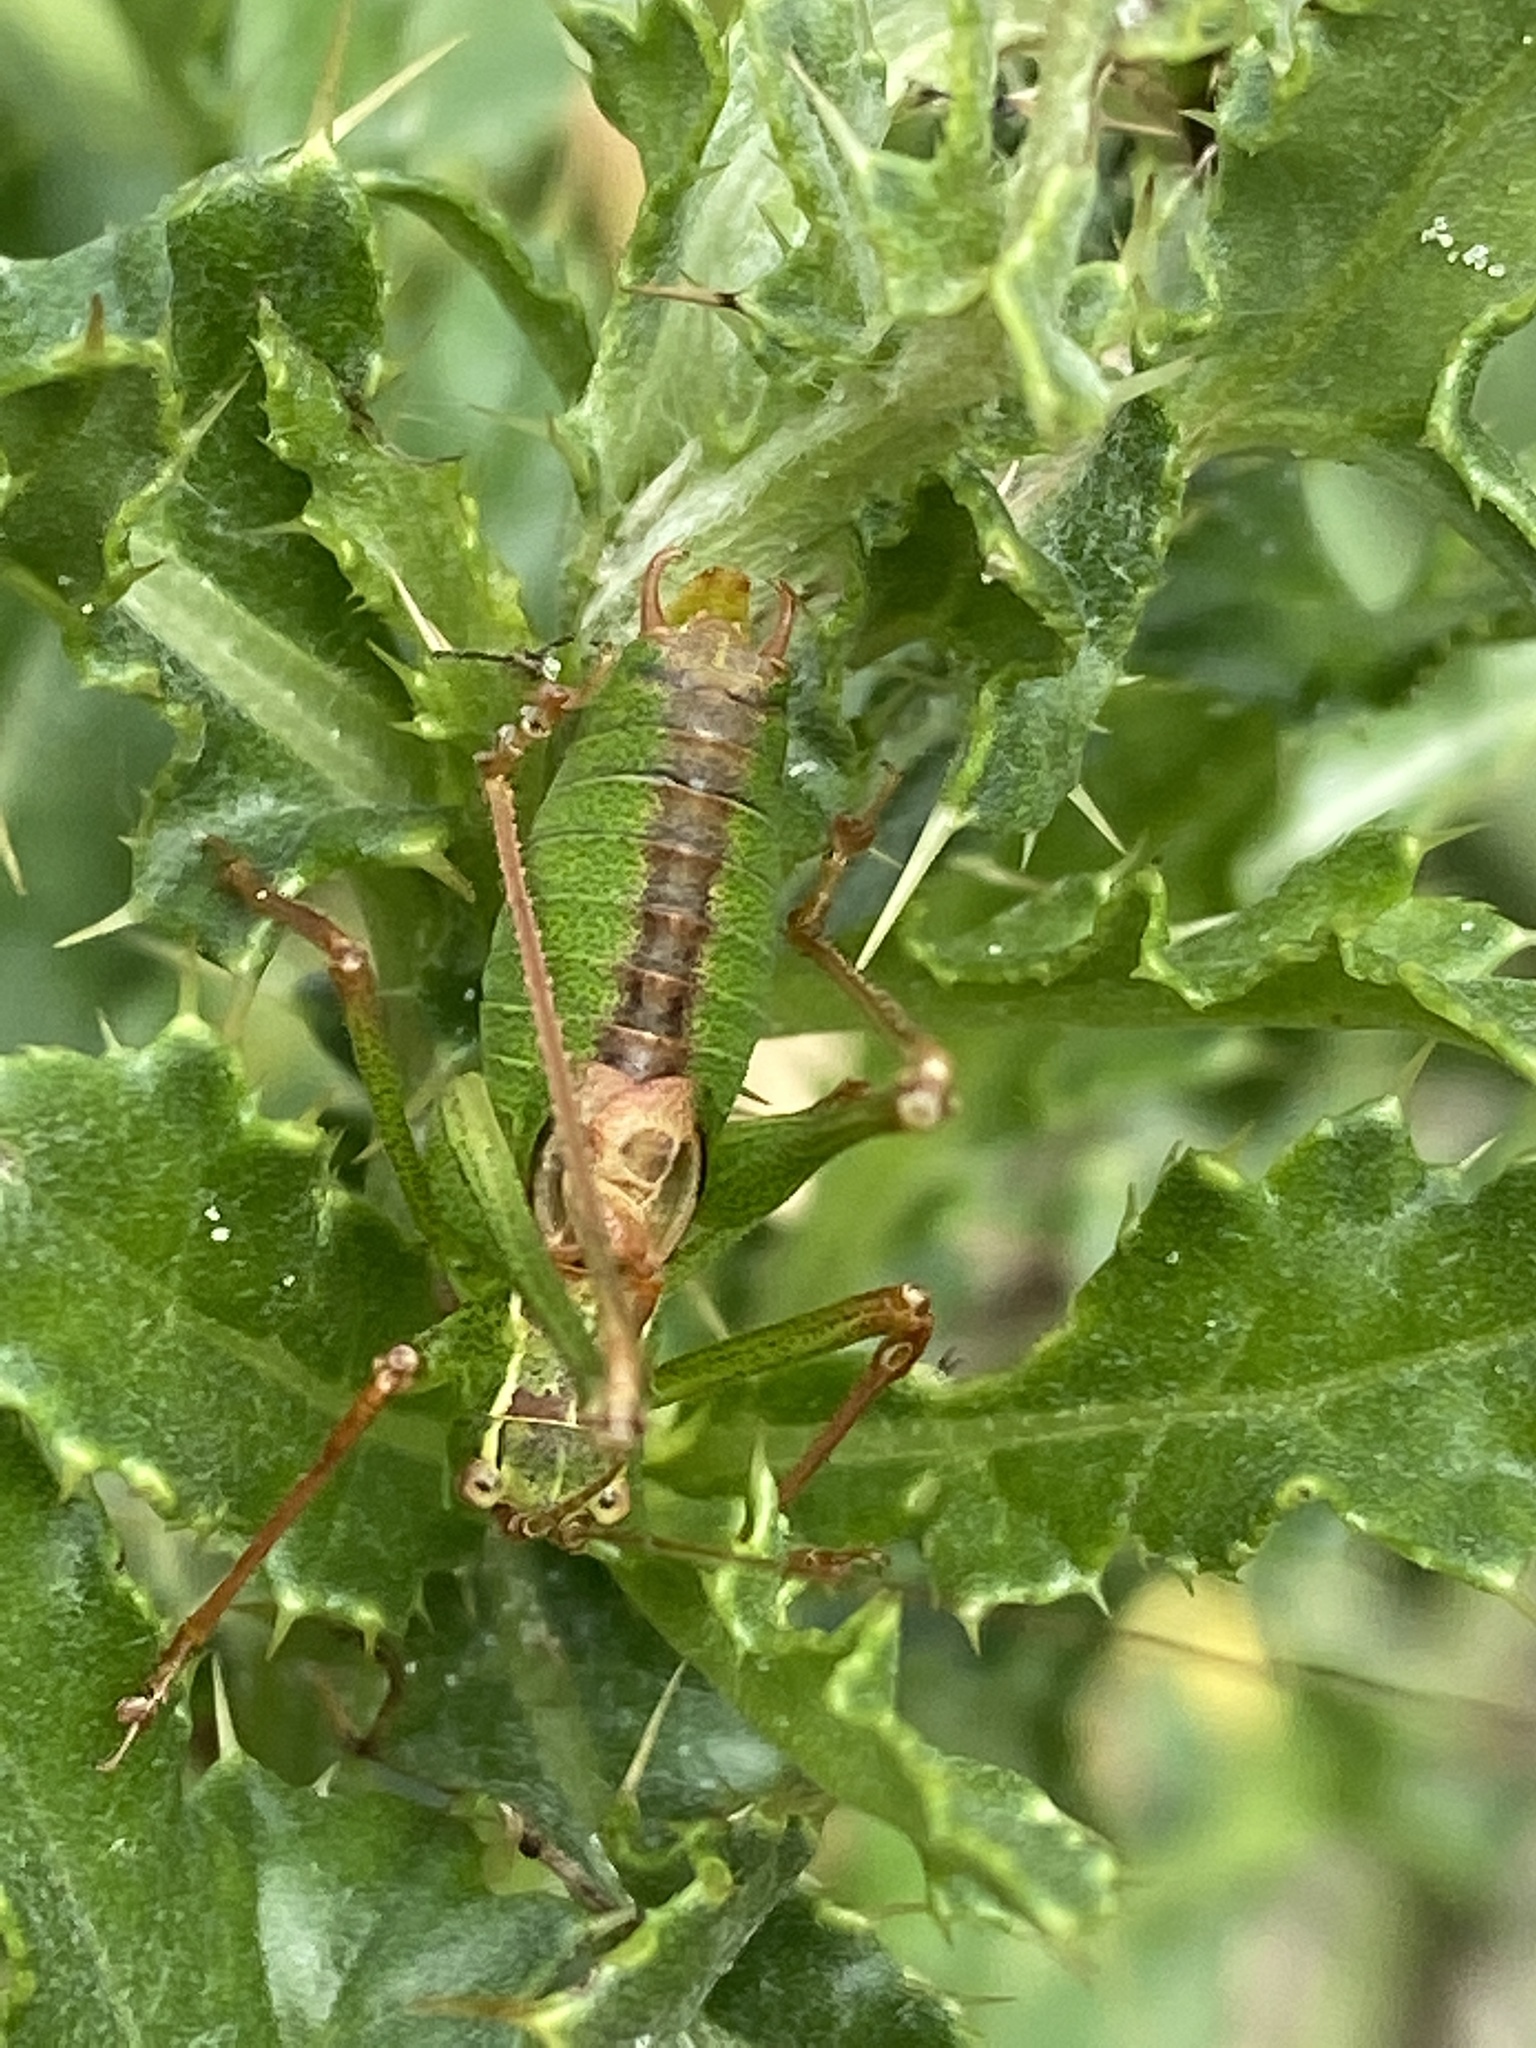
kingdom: Animalia
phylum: Arthropoda
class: Insecta
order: Orthoptera
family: Tettigoniidae
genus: Leptophyes
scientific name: Leptophyes punctatissima
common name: Speckled bush-cricket
